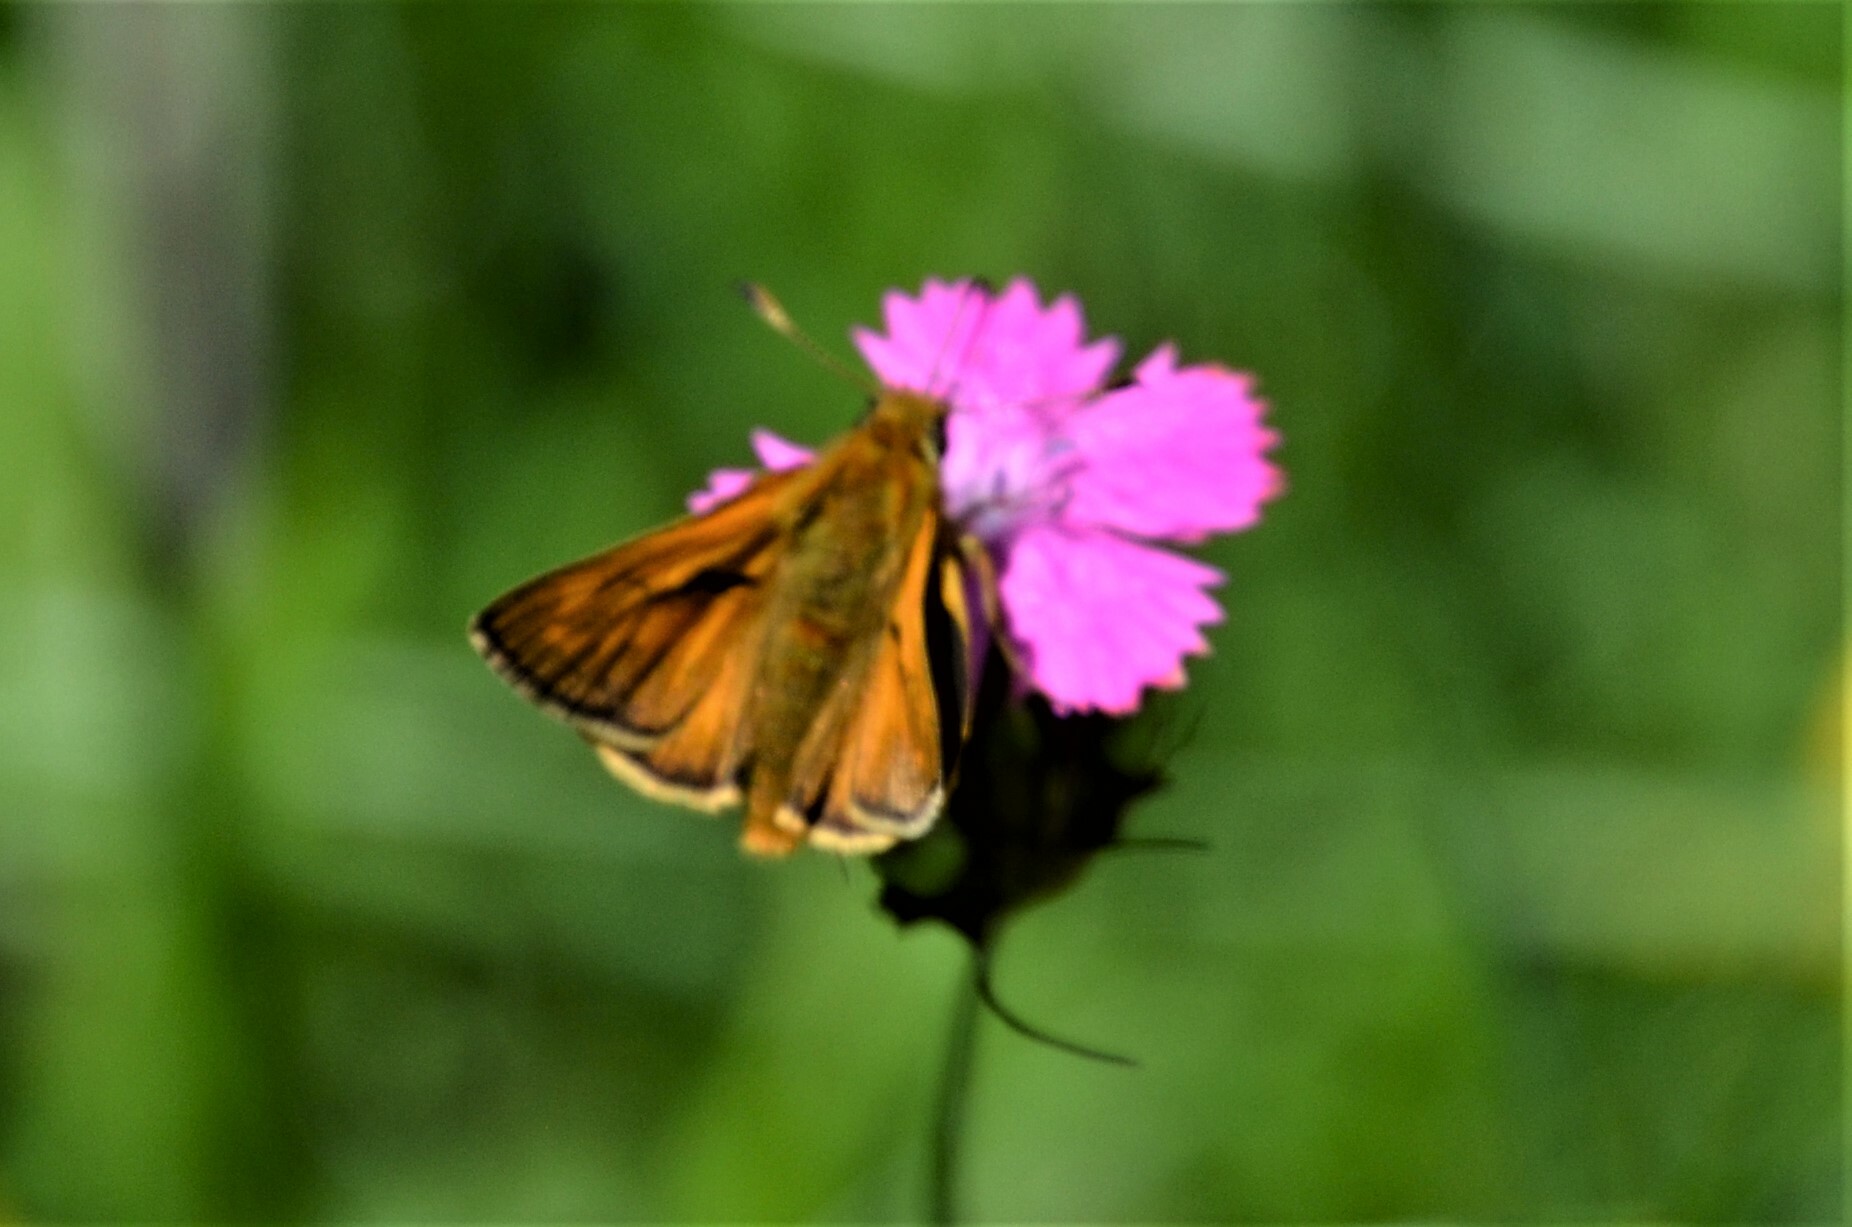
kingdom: Animalia
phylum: Arthropoda
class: Insecta
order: Lepidoptera
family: Hesperiidae
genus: Ochlodes
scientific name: Ochlodes venata
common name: Large skipper
